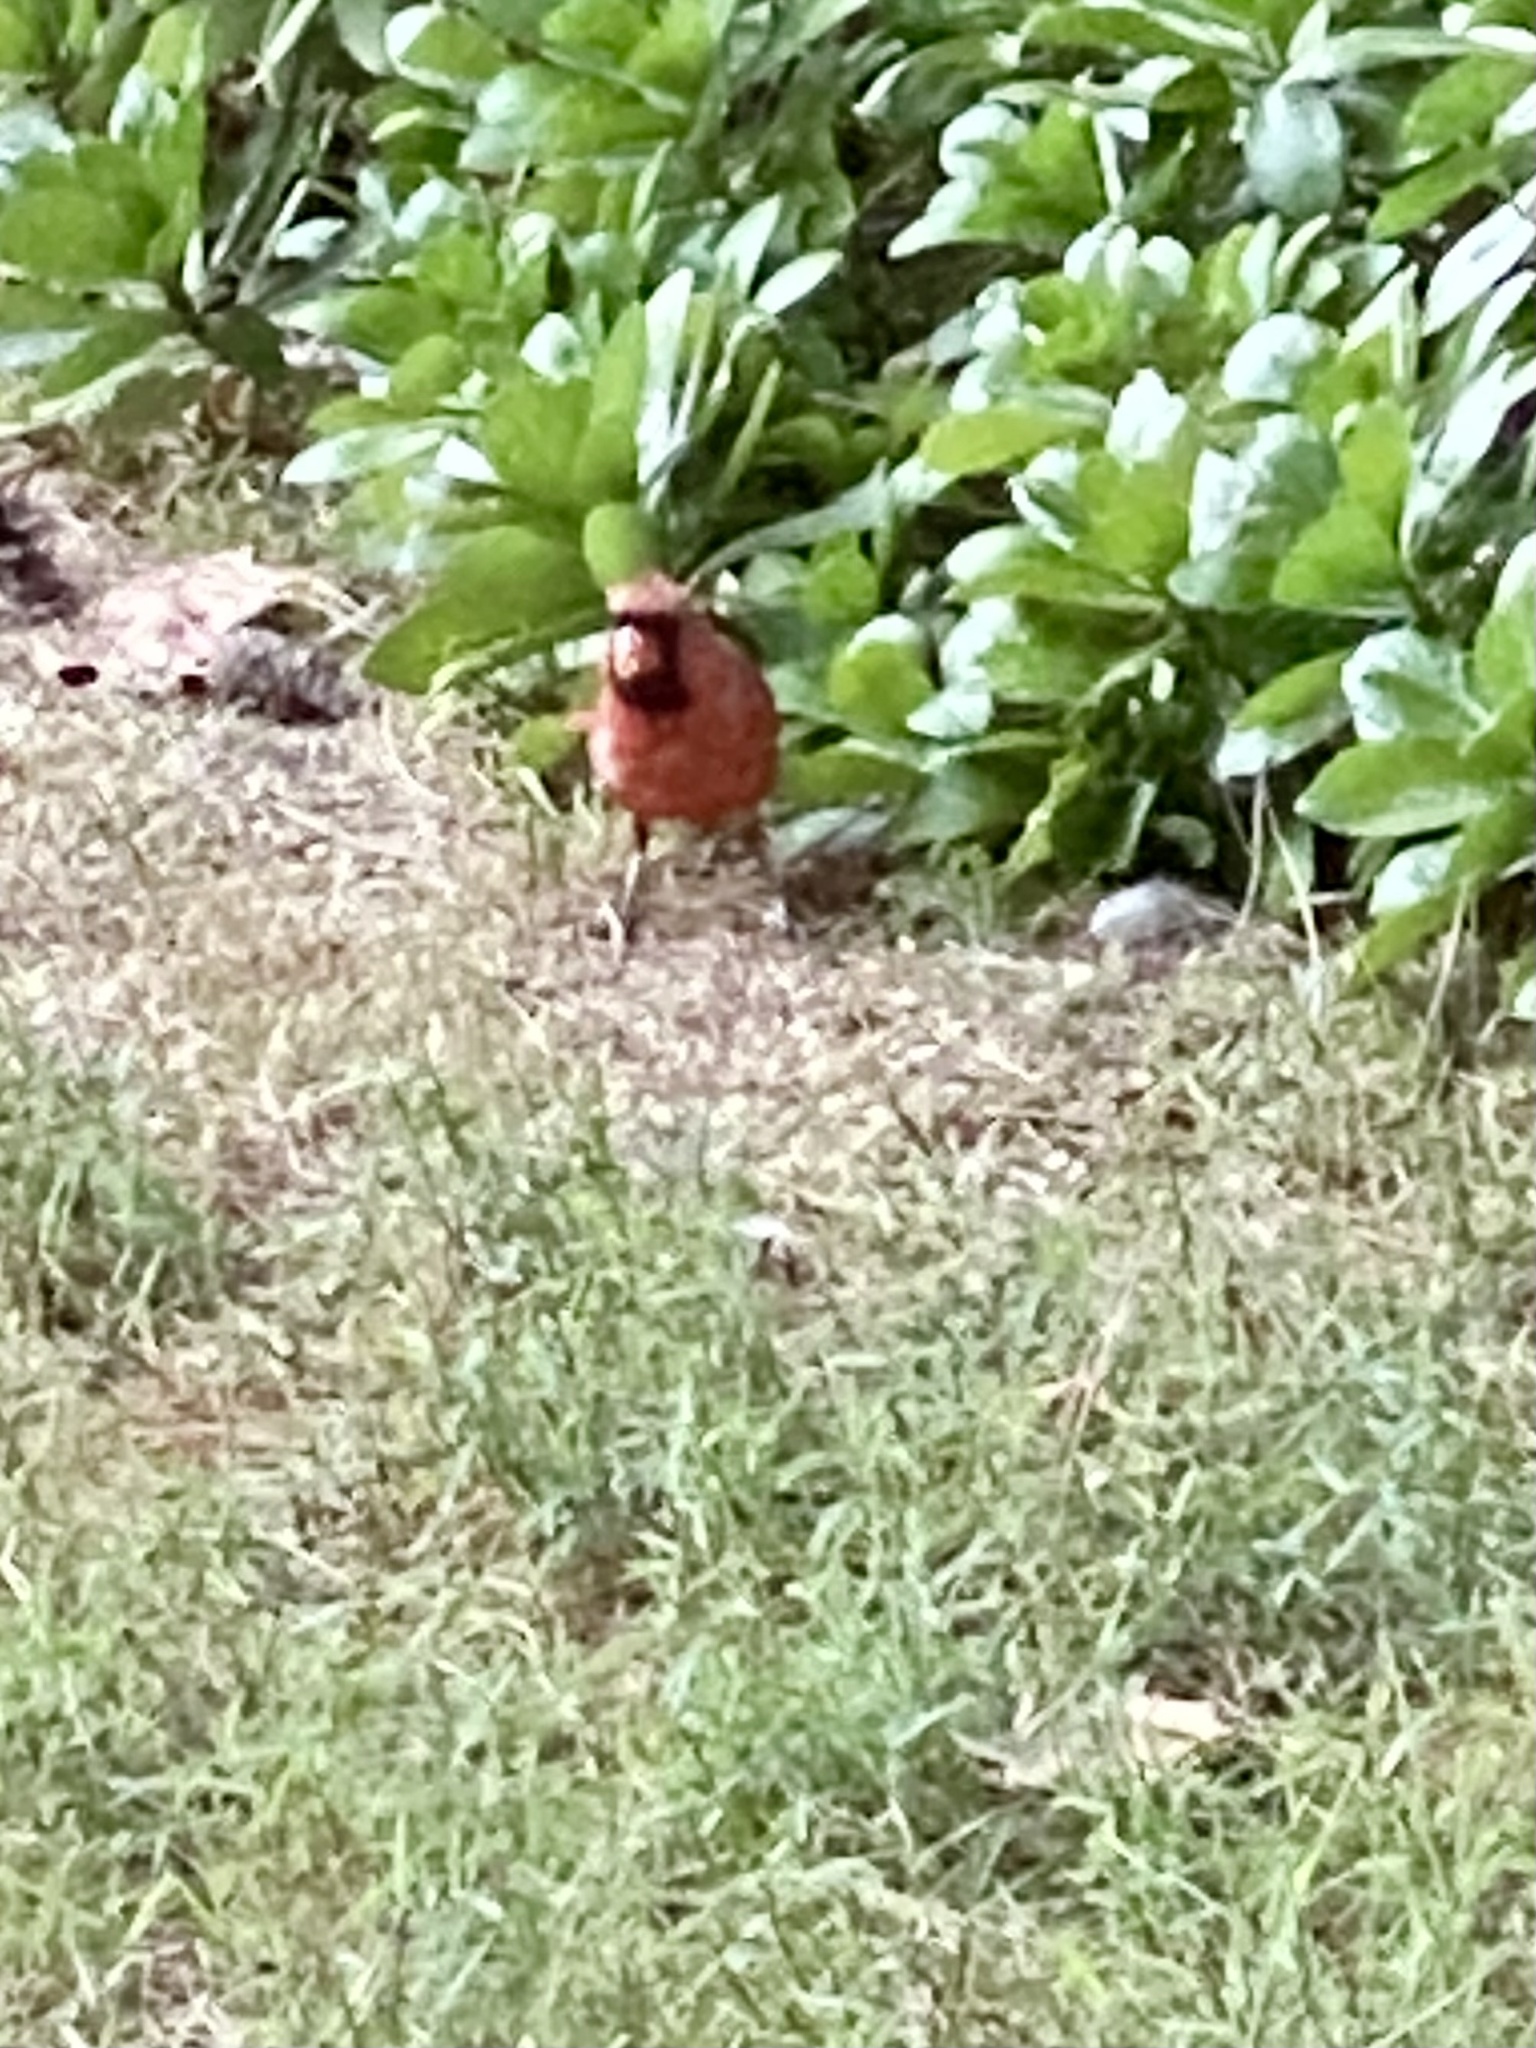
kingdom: Animalia
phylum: Chordata
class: Aves
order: Passeriformes
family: Cardinalidae
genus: Cardinalis
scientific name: Cardinalis cardinalis
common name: Northern cardinal
